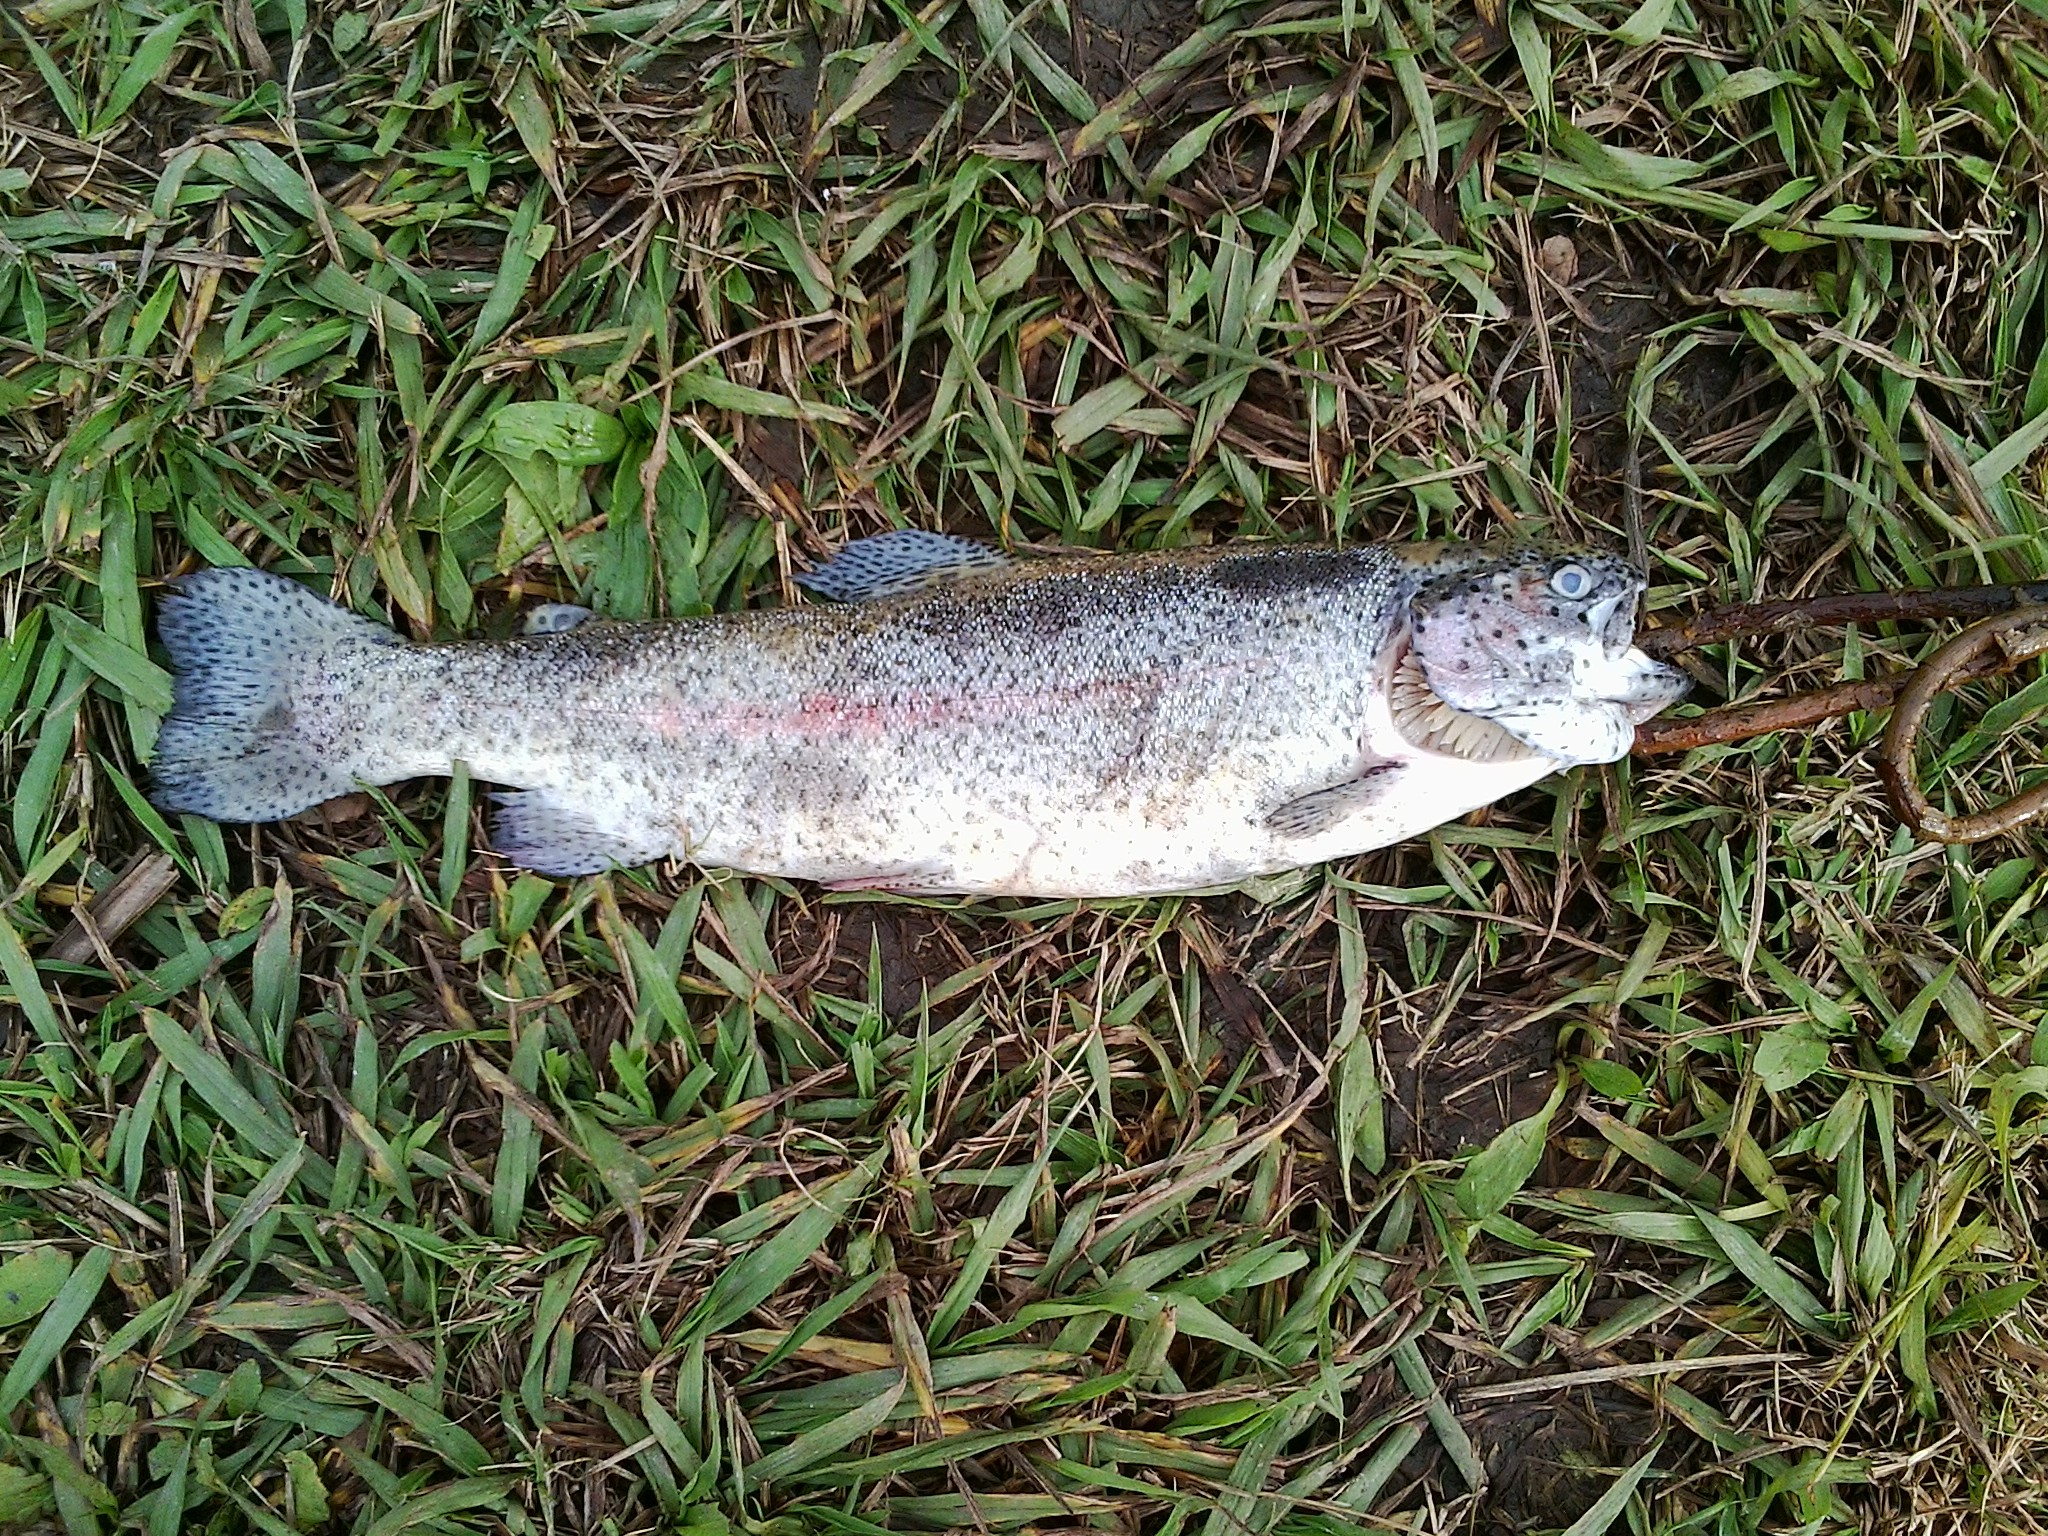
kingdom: Animalia
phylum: Chordata
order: Salmoniformes
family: Salmonidae
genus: Oncorhynchus
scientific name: Oncorhynchus mykiss
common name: Rainbow trout
